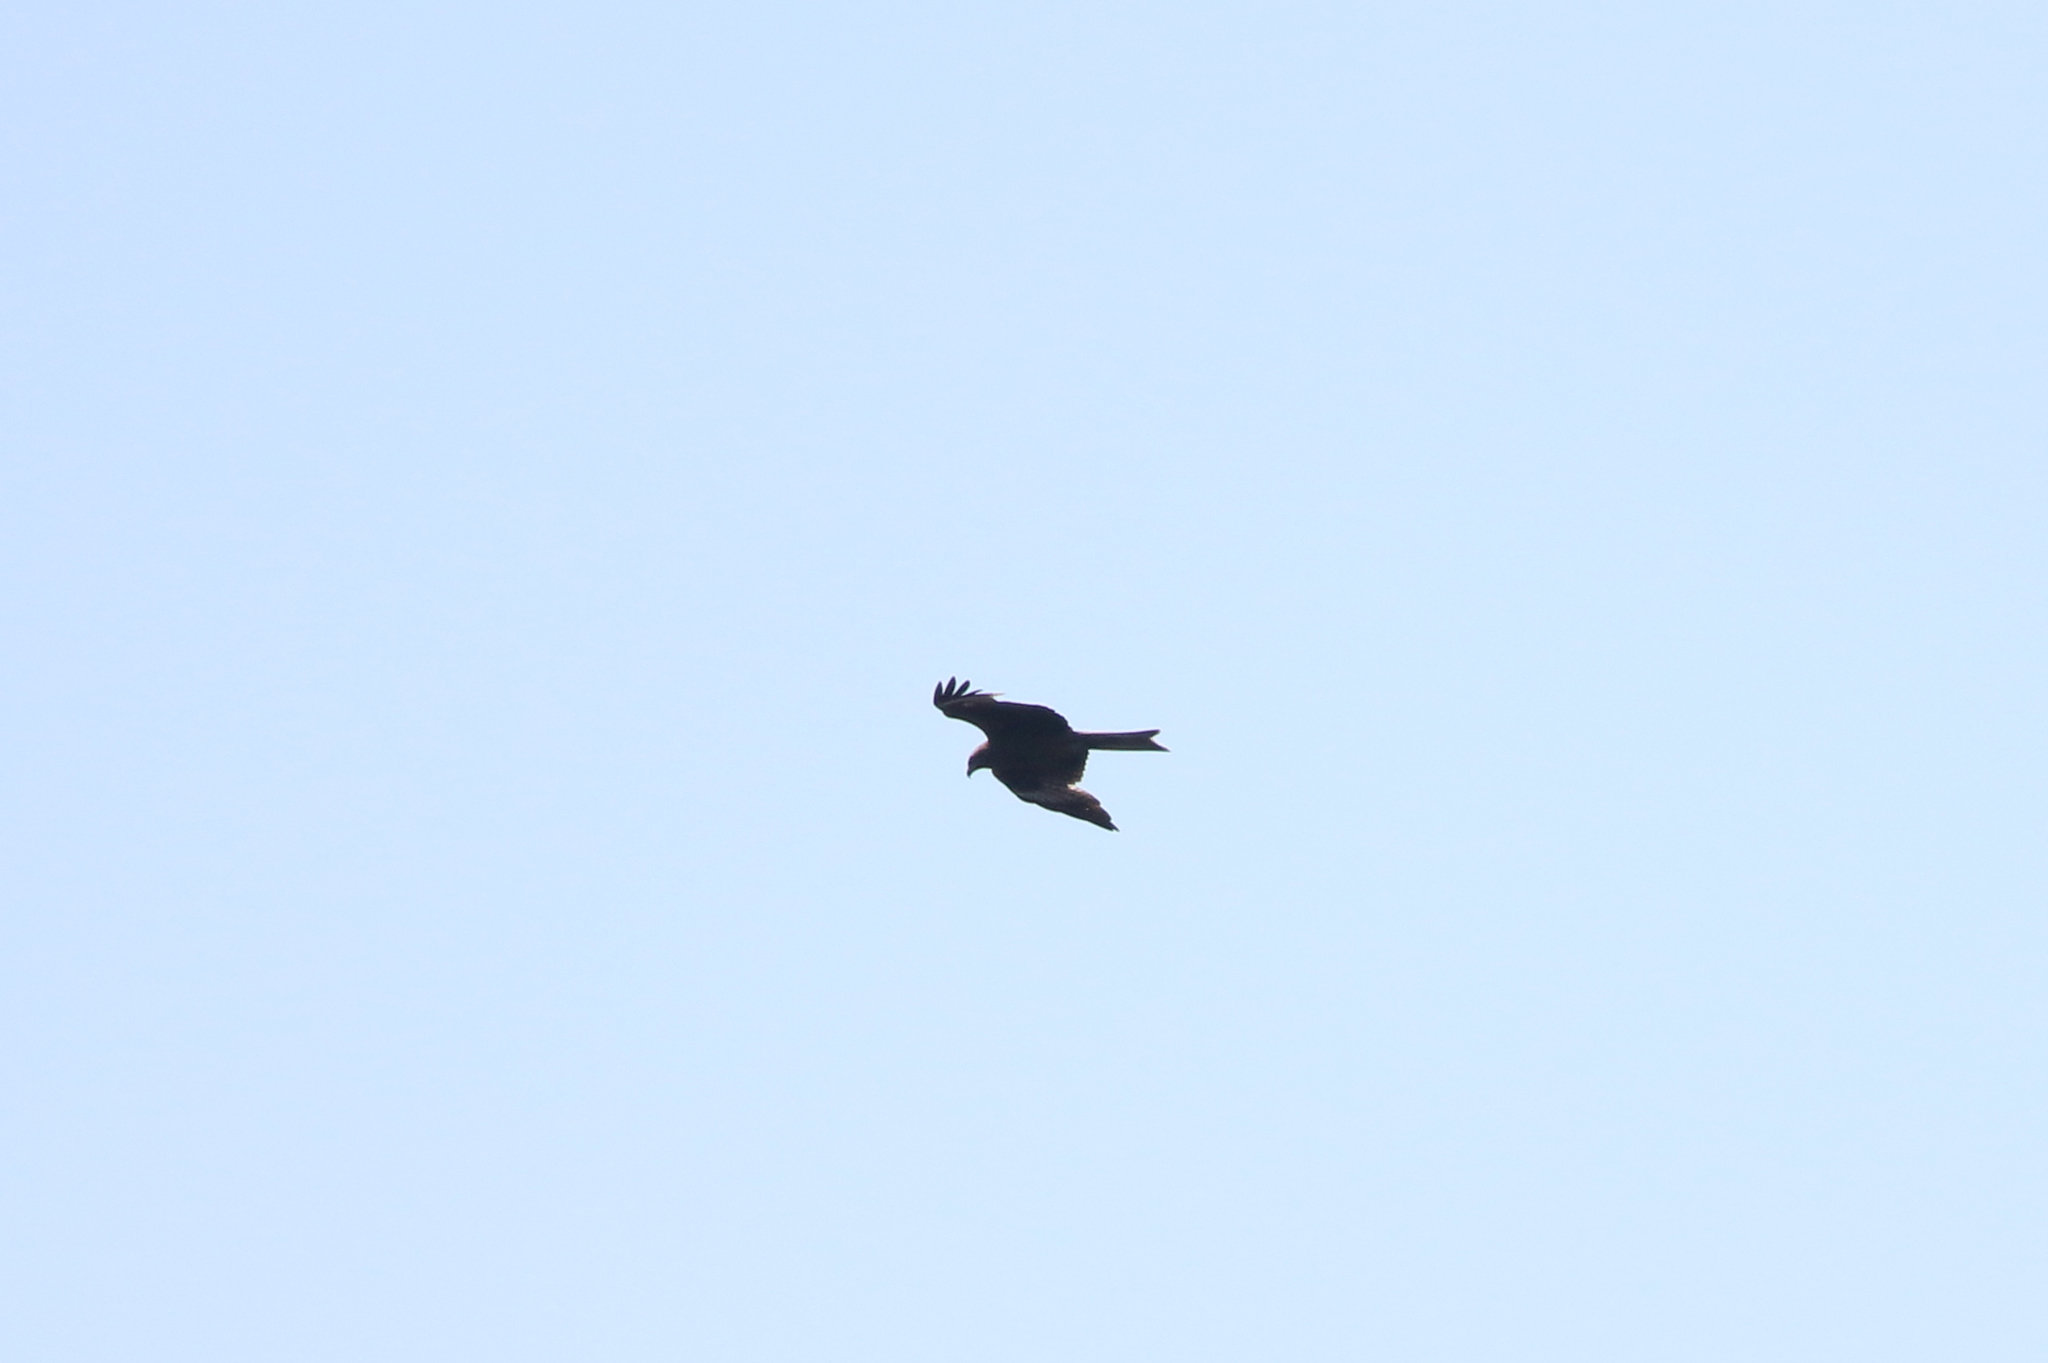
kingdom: Animalia
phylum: Chordata
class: Aves
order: Accipitriformes
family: Accipitridae
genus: Milvus
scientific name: Milvus migrans
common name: Black kite
